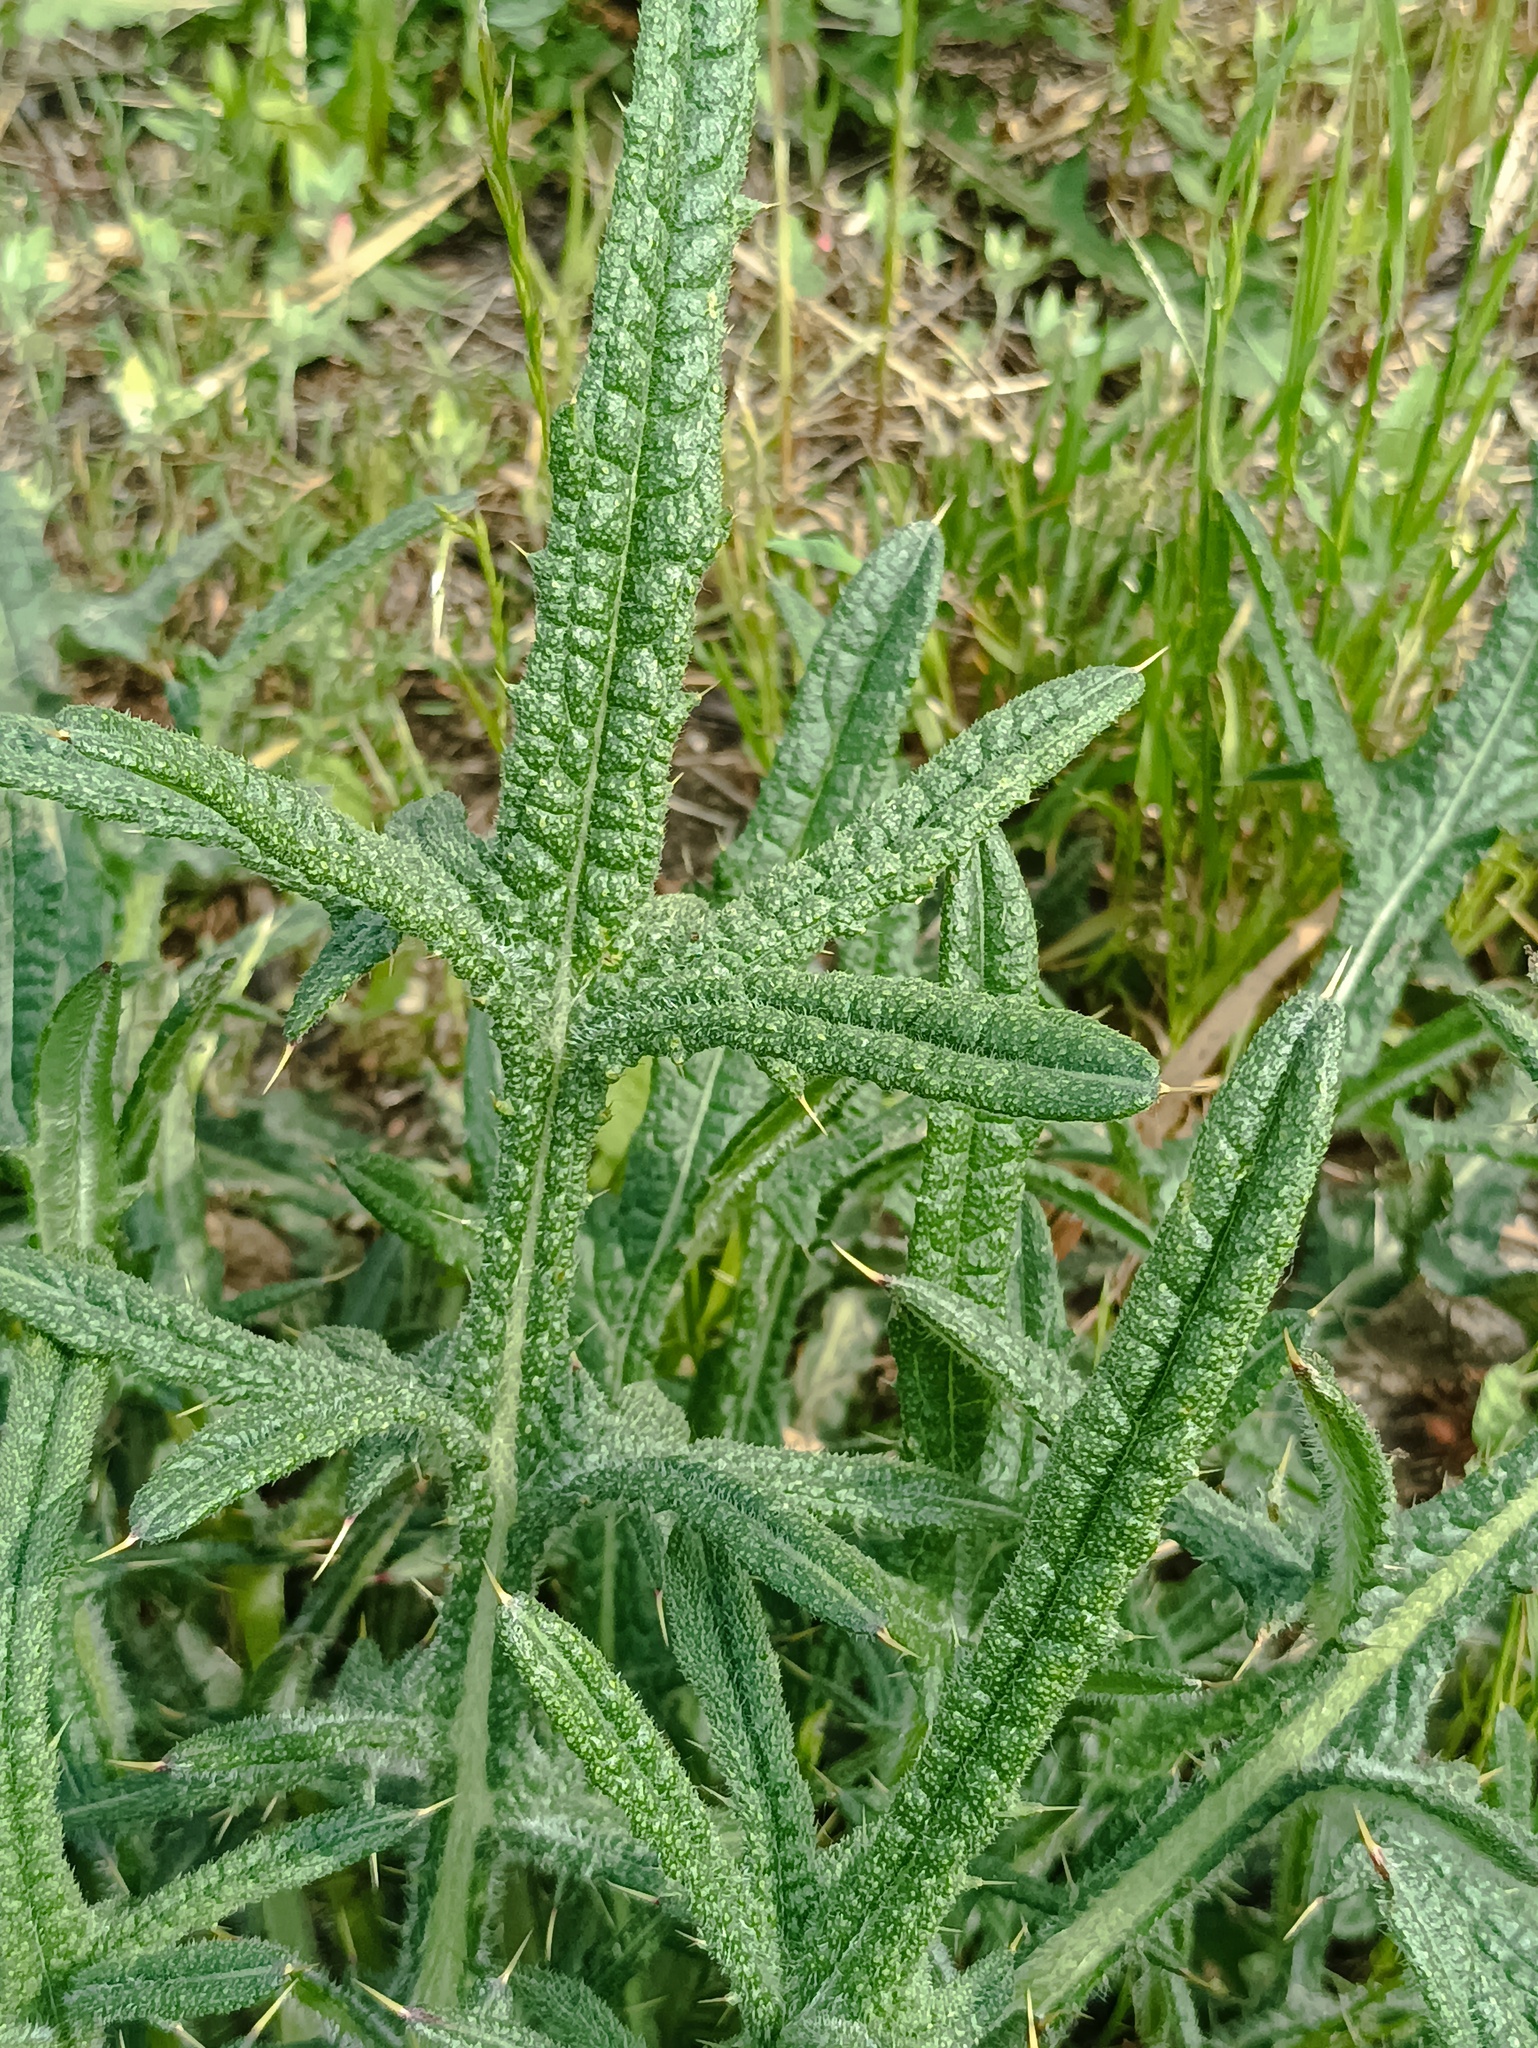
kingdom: Plantae
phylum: Tracheophyta
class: Magnoliopsida
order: Asterales
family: Asteraceae
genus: Cirsium
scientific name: Cirsium vulgare
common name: Bull thistle
